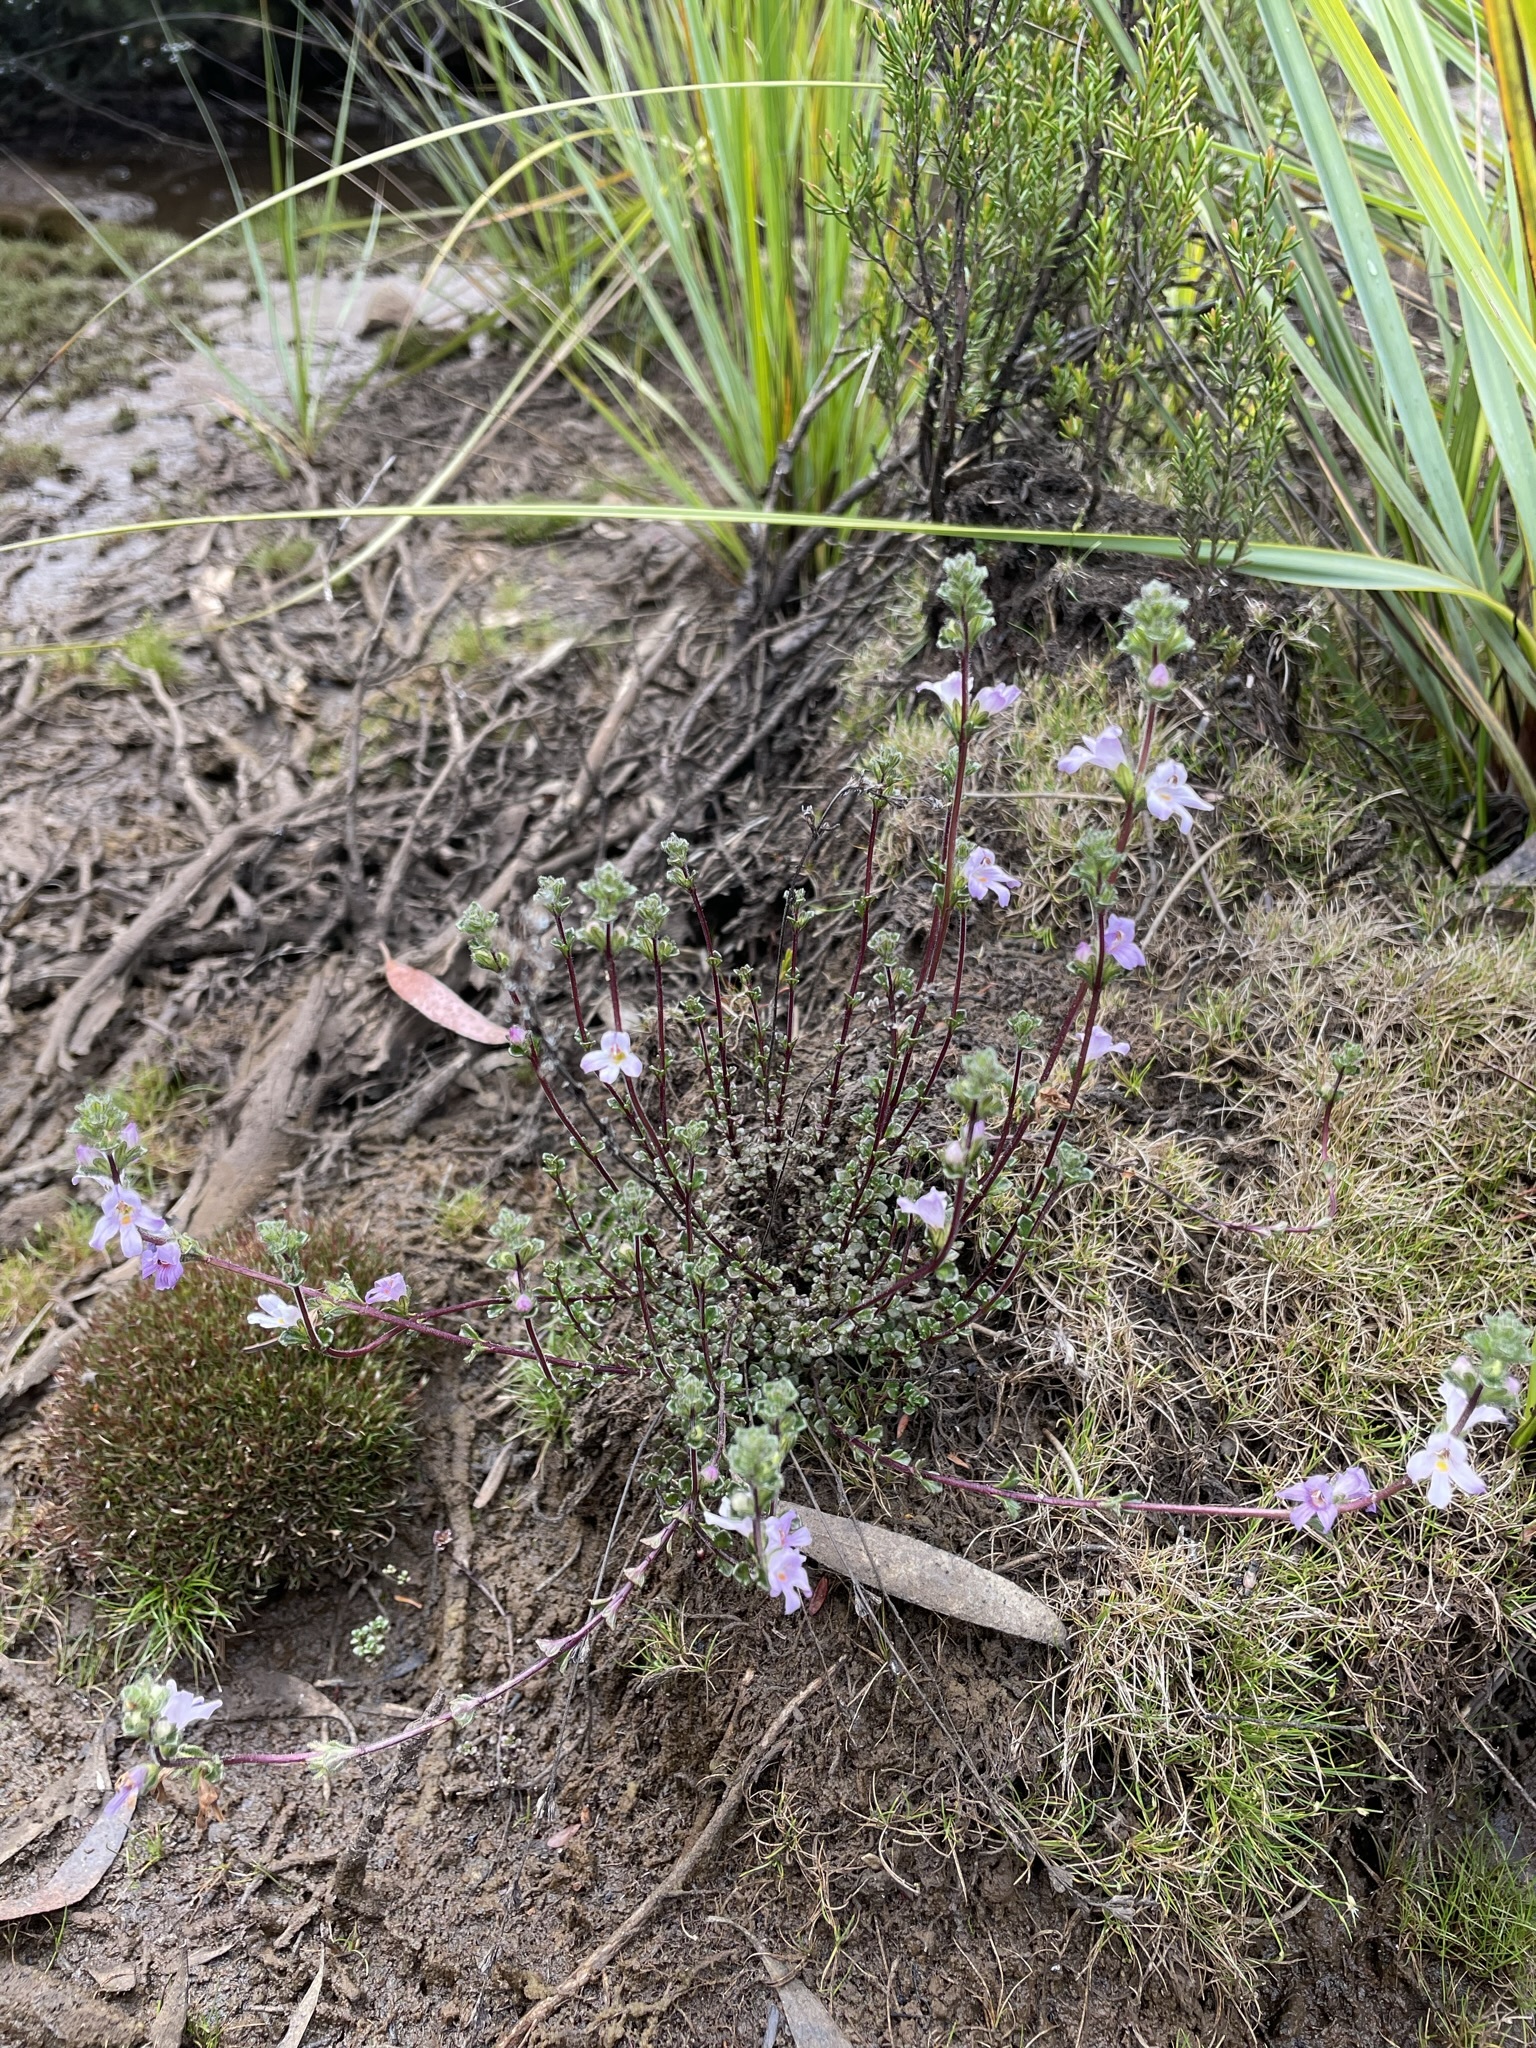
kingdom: Plantae
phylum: Tracheophyta
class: Magnoliopsida
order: Lamiales
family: Orobanchaceae
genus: Euphrasia
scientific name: Euphrasia amplidens
